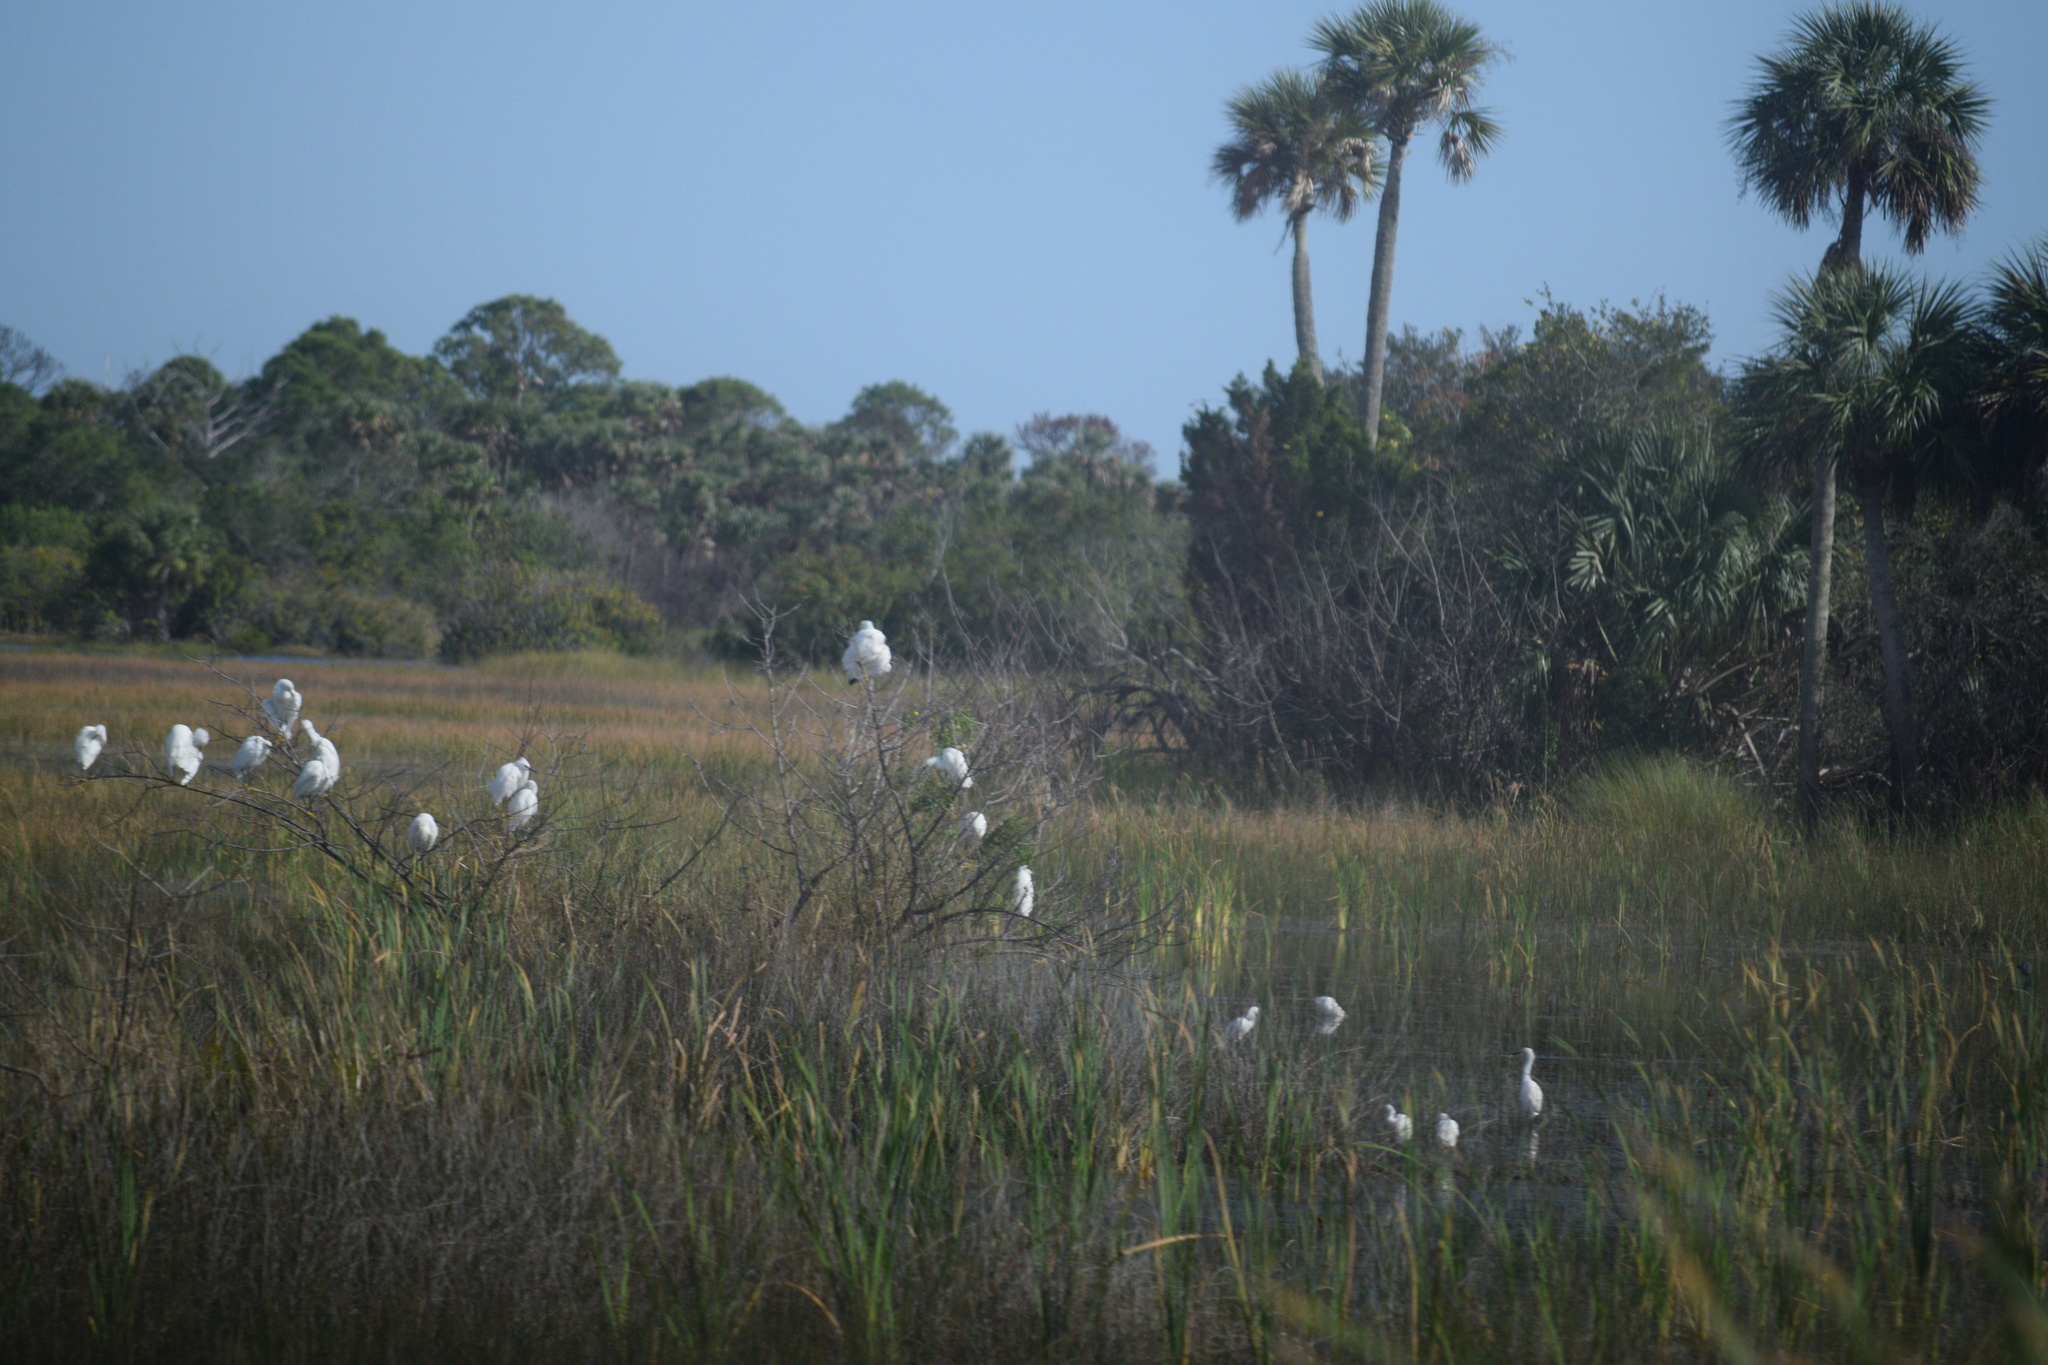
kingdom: Animalia
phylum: Chordata
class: Aves
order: Pelecaniformes
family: Ardeidae
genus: Egretta
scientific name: Egretta thula
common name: Snowy egret
